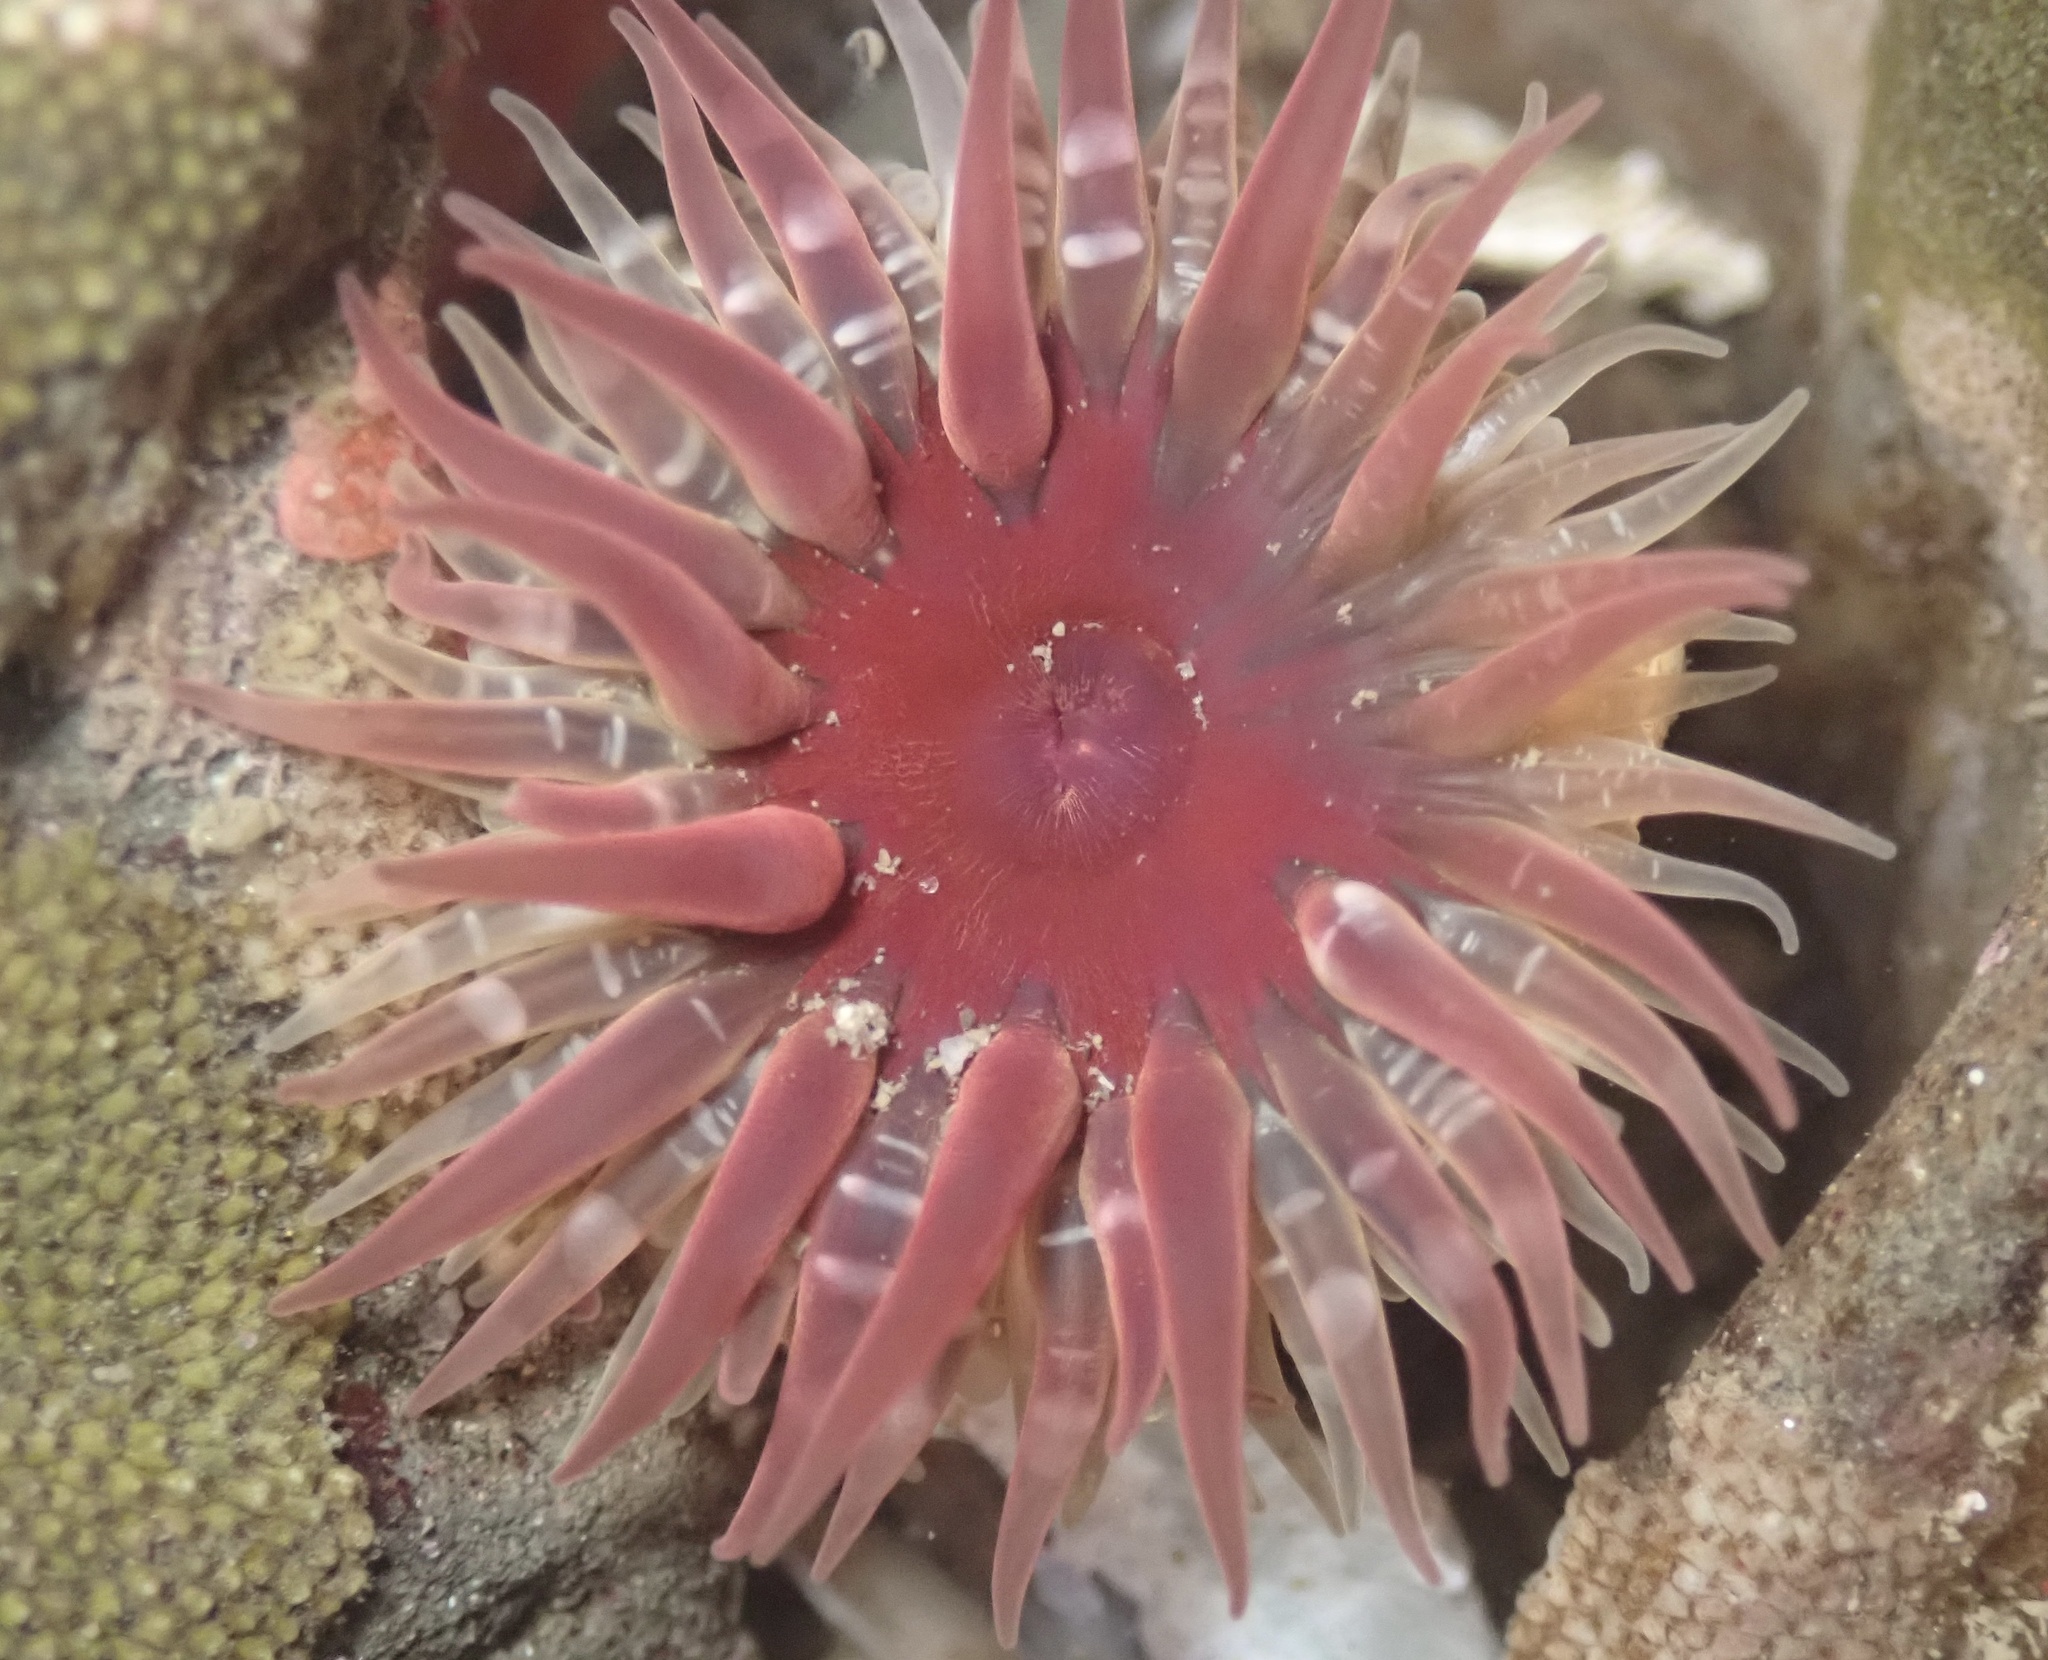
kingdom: Animalia
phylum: Cnidaria
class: Anthozoa
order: Actiniaria
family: Actiniidae
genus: Anthopleura
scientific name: Anthopleura artemisia
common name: Buried sea anemone
